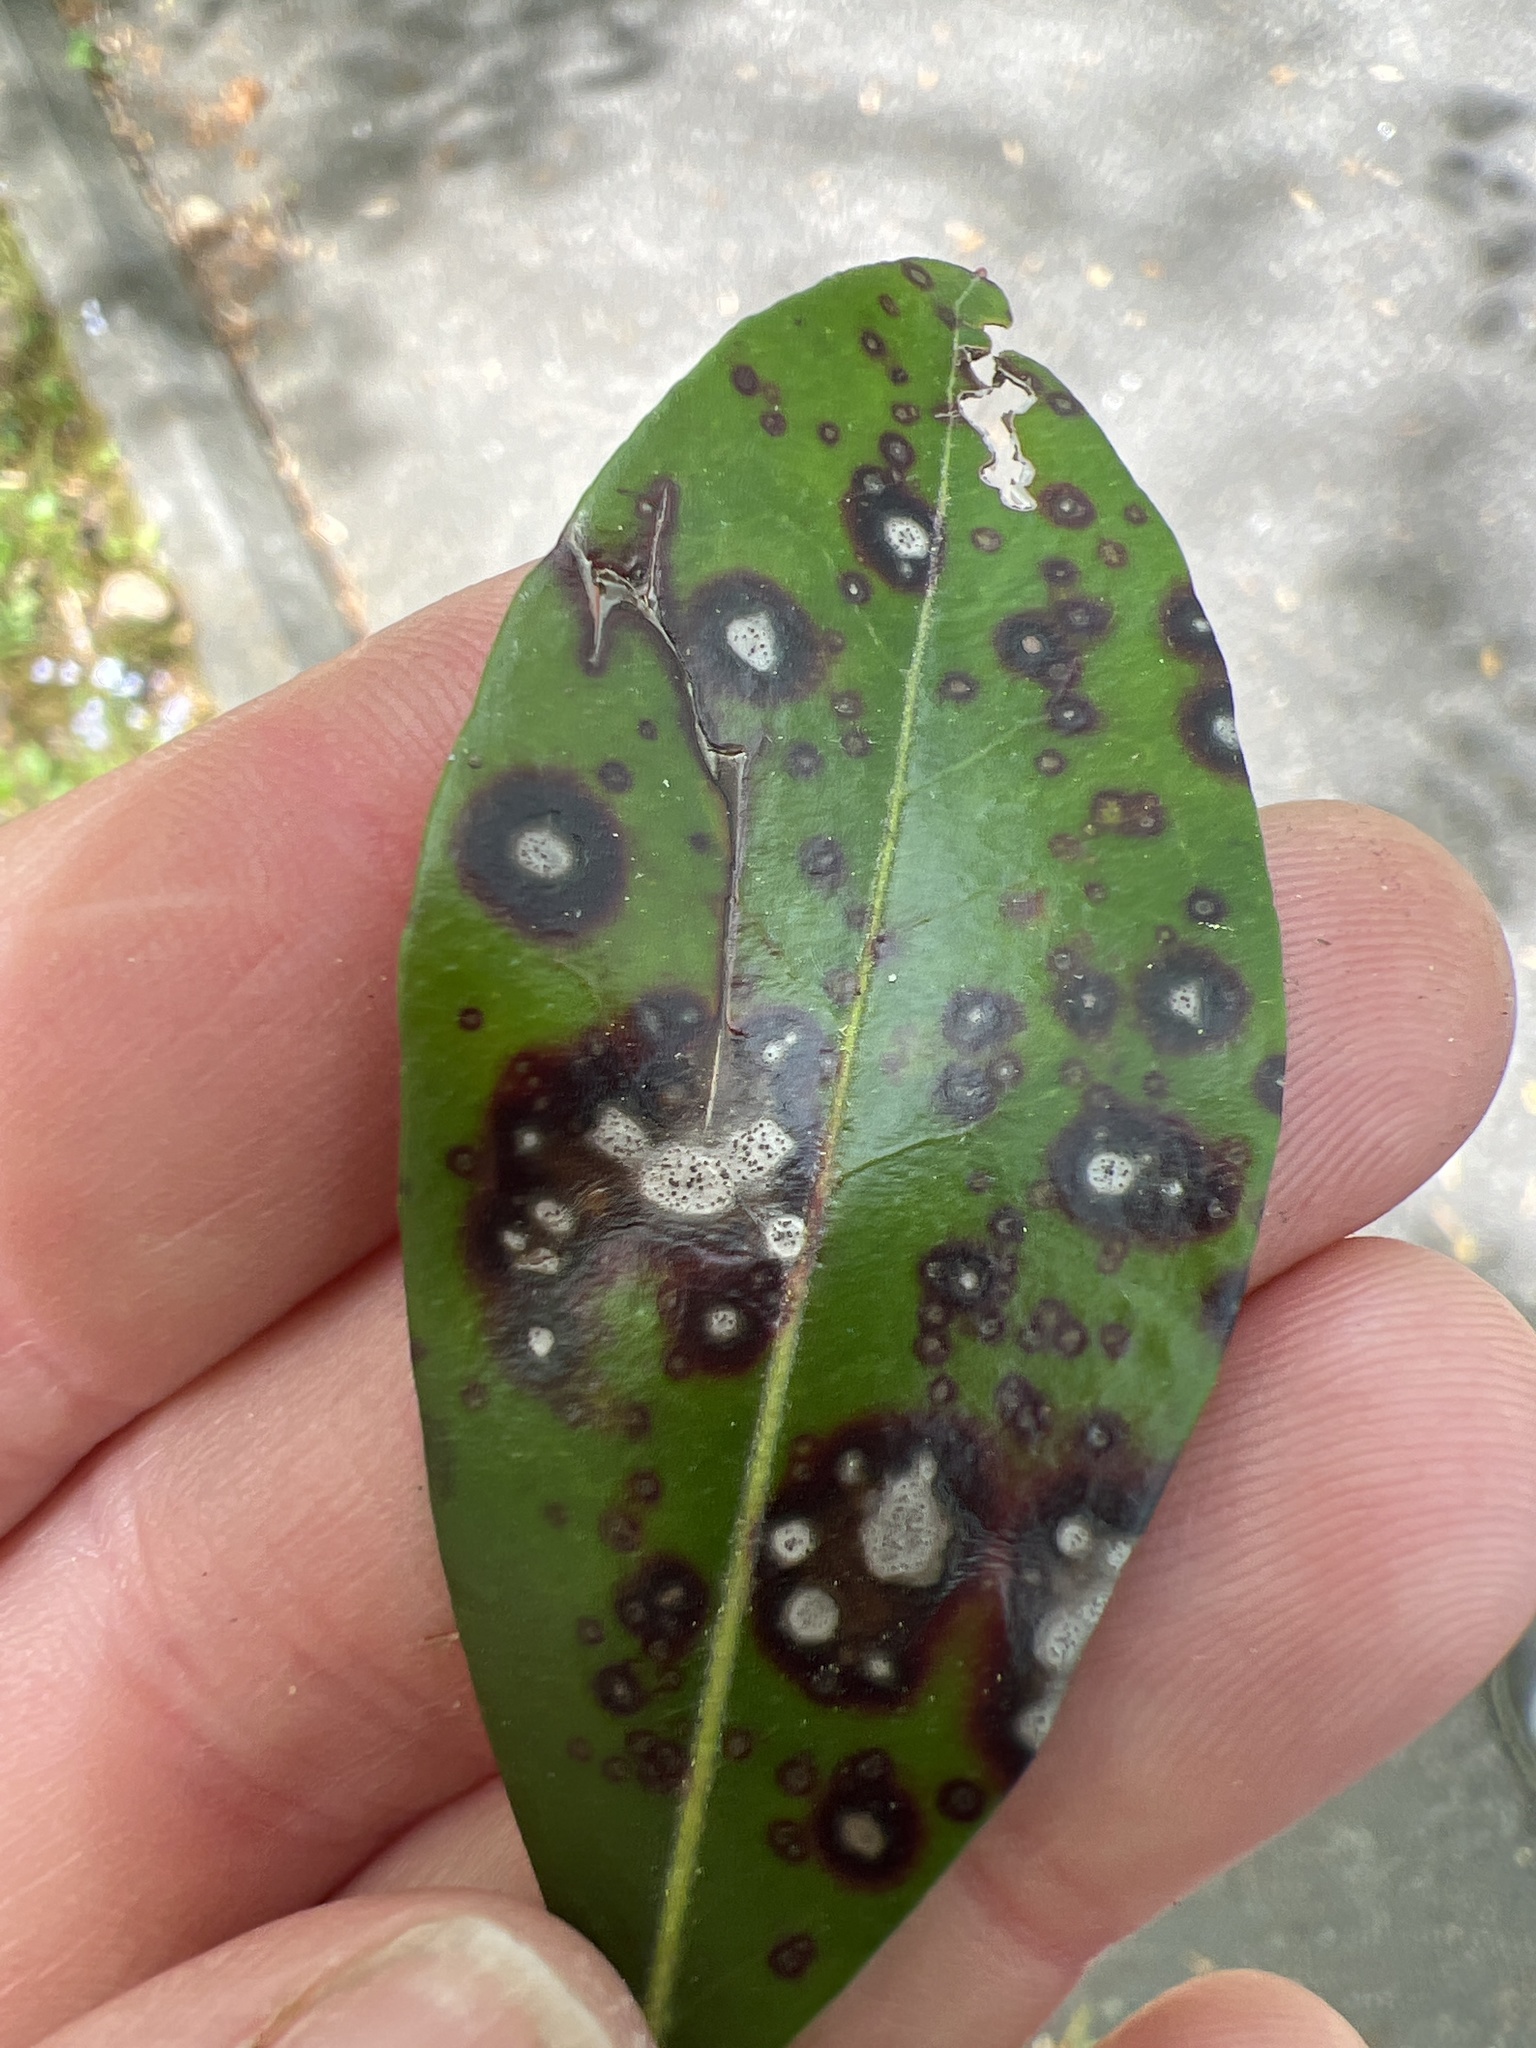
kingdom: Fungi
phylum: Ascomycota
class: Dothideomycetes
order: Mycosphaerellales
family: Mycosphaerellaceae
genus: Mycosphaerella
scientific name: Mycosphaerella colorata
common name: Mountain laurel leaf spot
